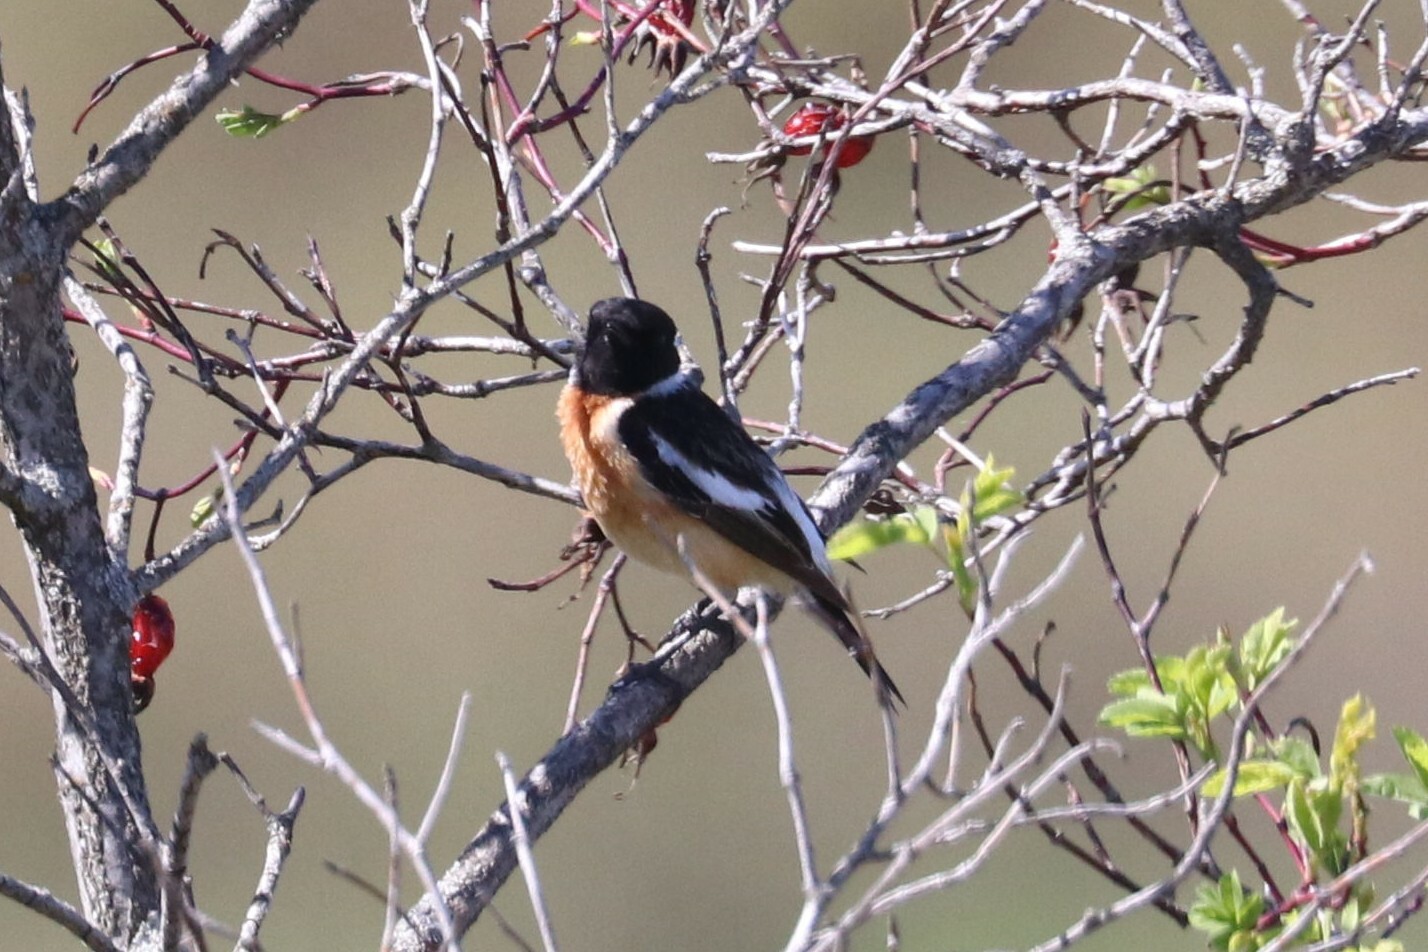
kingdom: Animalia
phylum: Chordata
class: Aves
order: Passeriformes
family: Muscicapidae
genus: Saxicola
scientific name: Saxicola maurus
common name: Siberian stonechat
